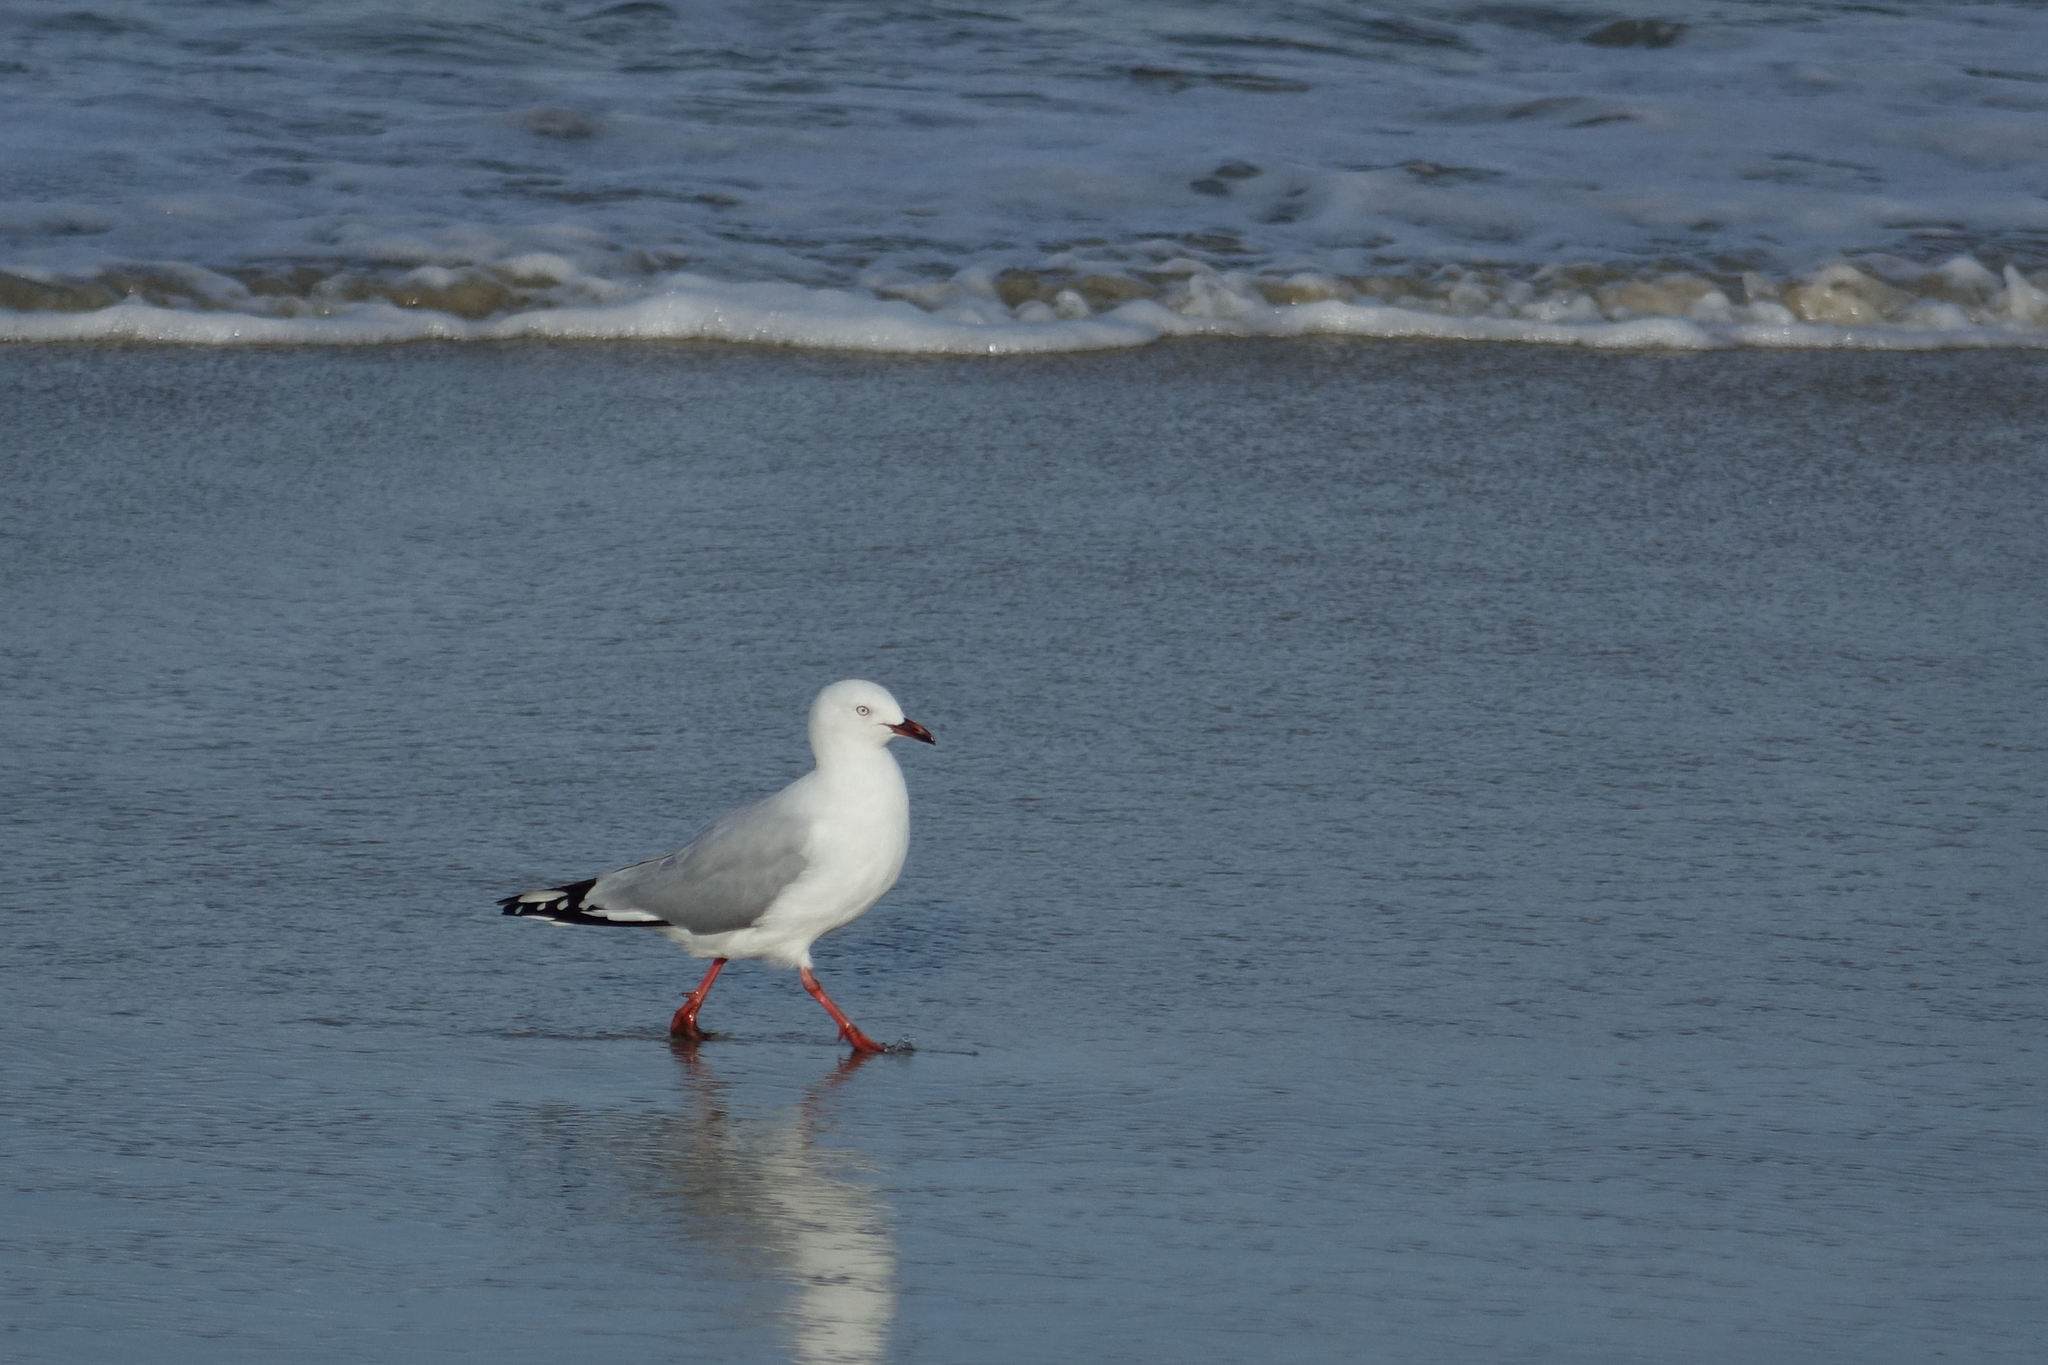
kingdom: Animalia
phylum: Chordata
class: Aves
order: Charadriiformes
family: Laridae
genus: Chroicocephalus
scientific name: Chroicocephalus novaehollandiae
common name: Silver gull
